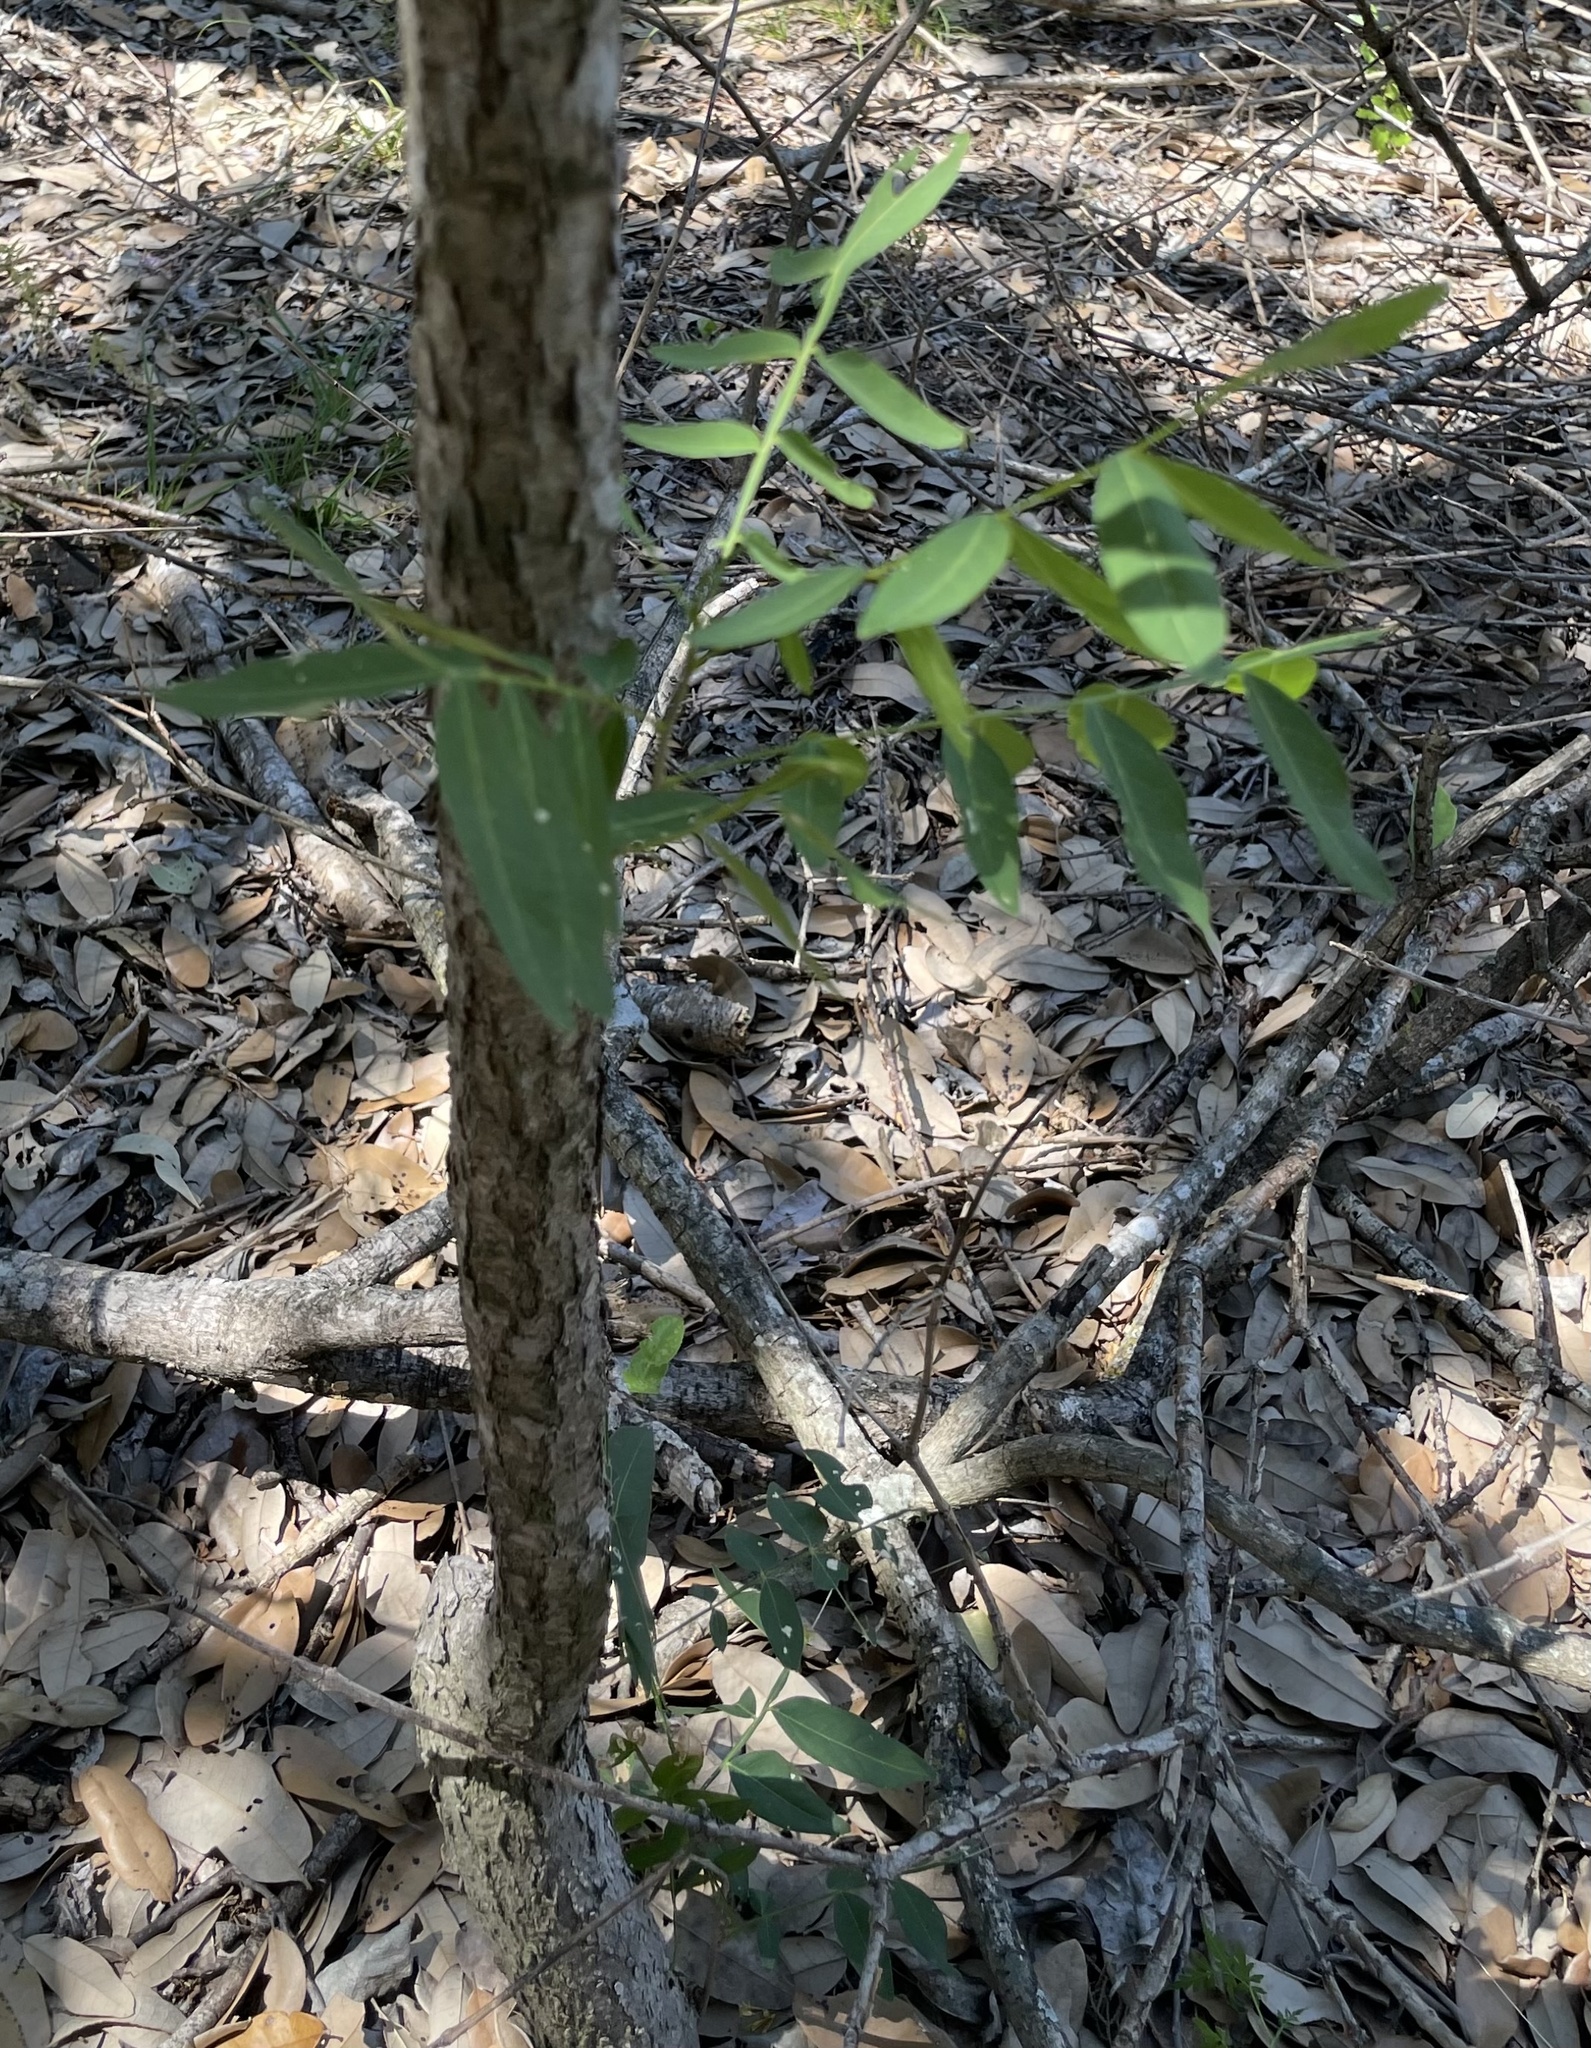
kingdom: Plantae
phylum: Tracheophyta
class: Magnoliopsida
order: Sapindales
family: Sapindaceae
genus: Sapindus
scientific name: Sapindus drummondii
